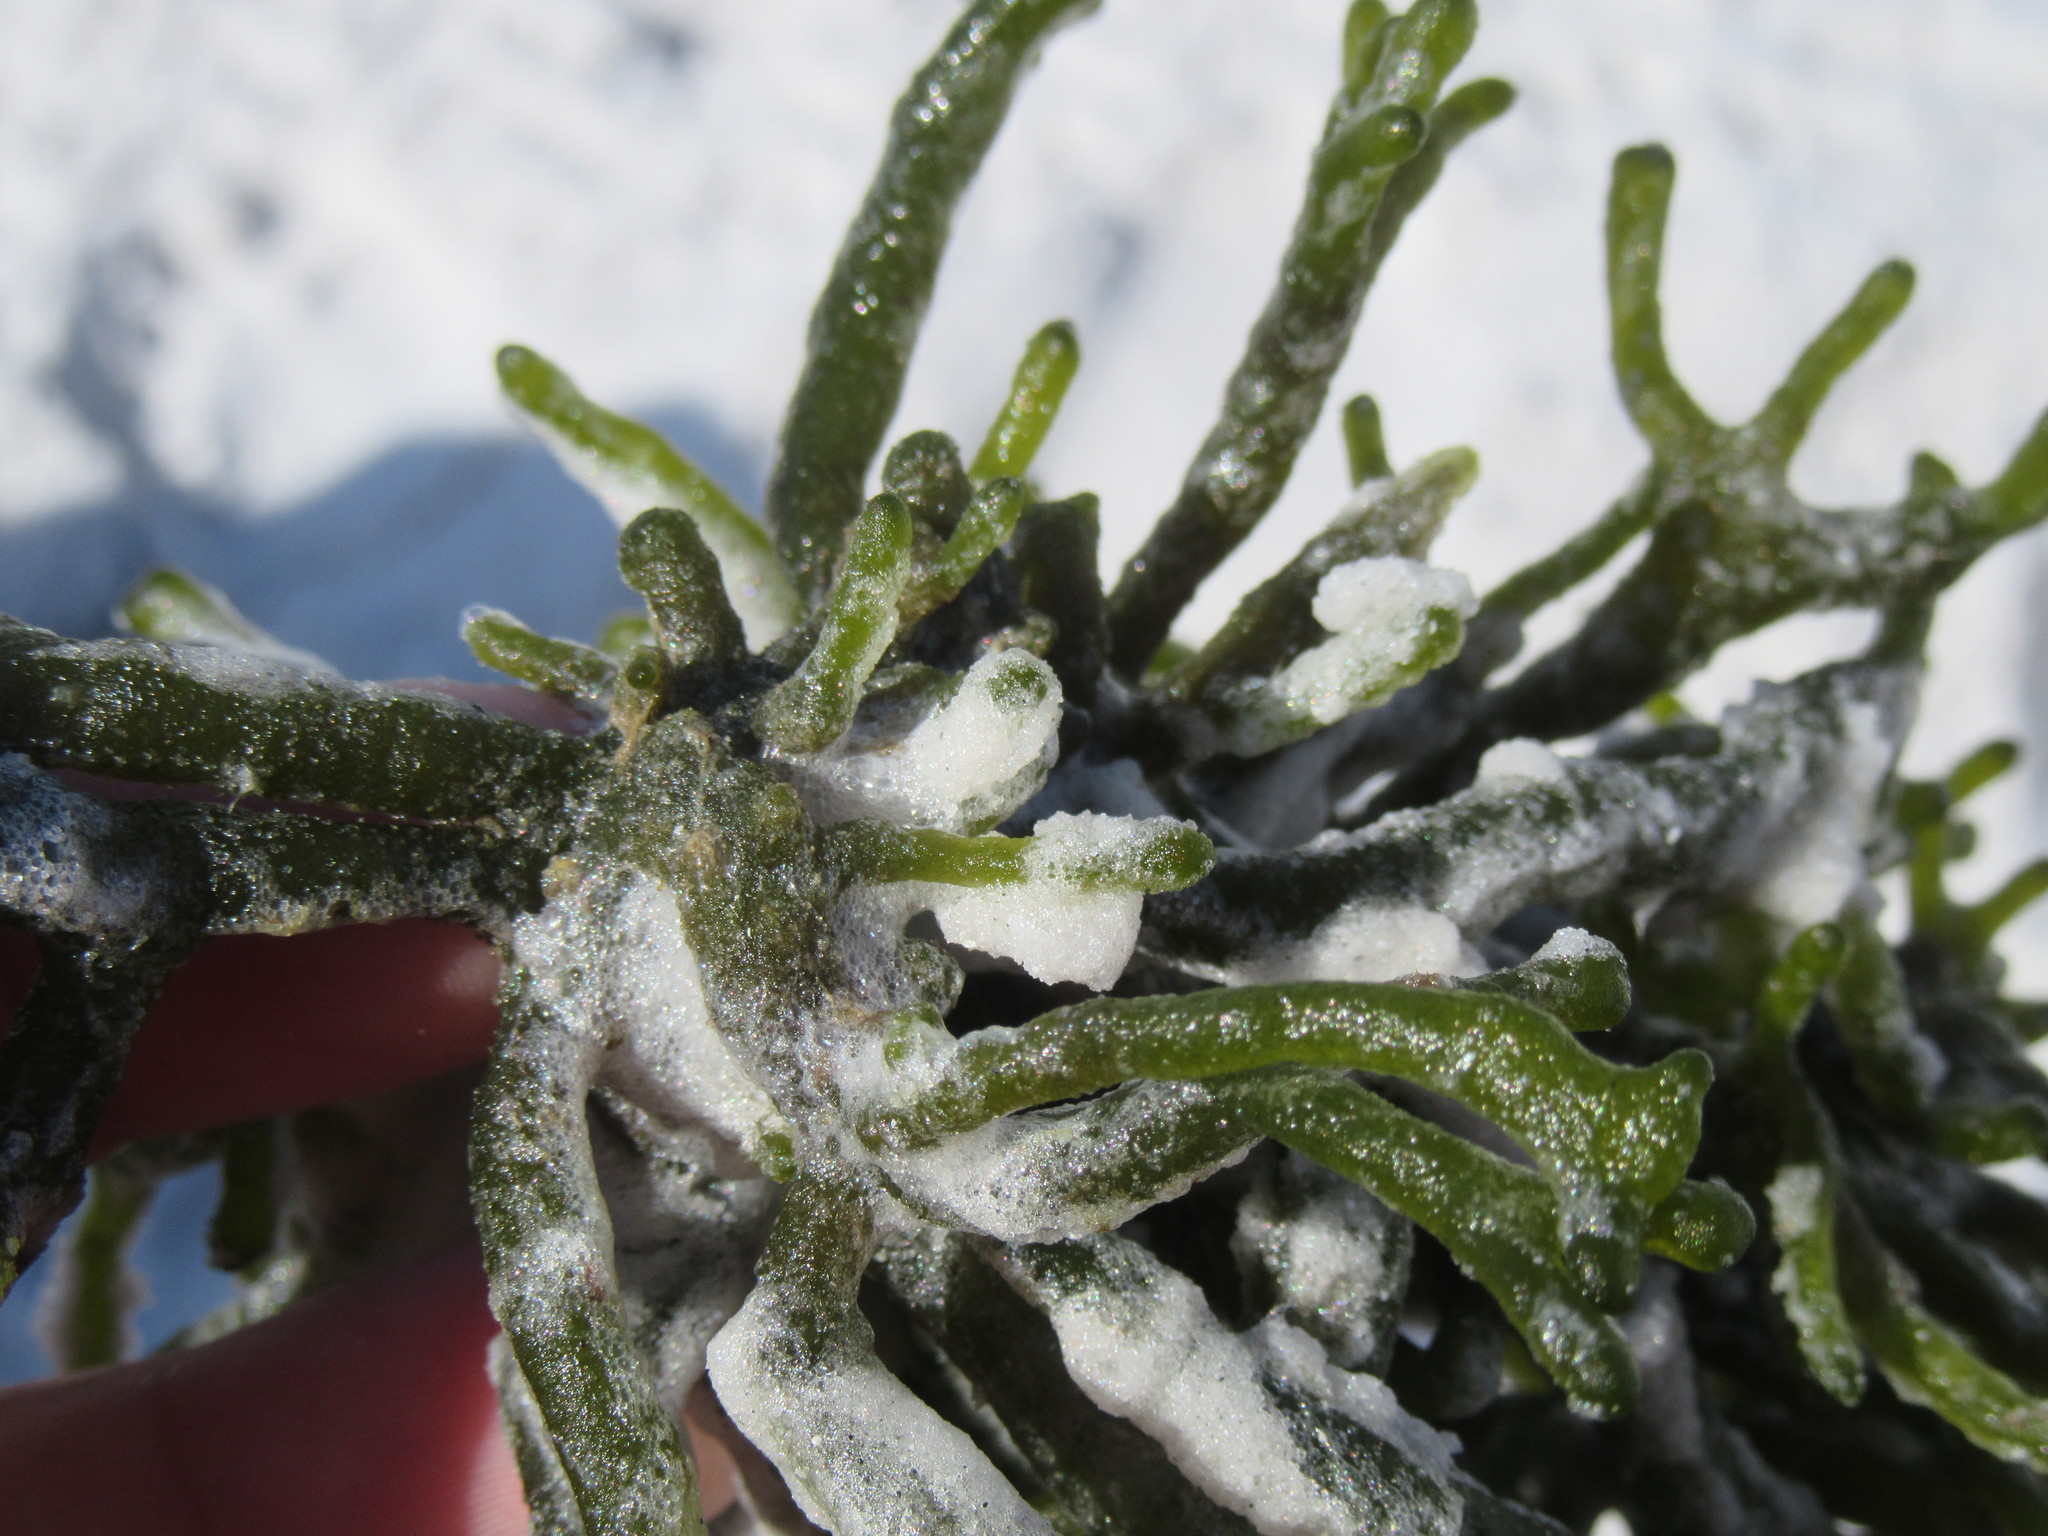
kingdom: Plantae
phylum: Chlorophyta
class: Ulvophyceae
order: Bryopsidales
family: Codiaceae
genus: Codium
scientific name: Codium fragile
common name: Dead man's fingers
